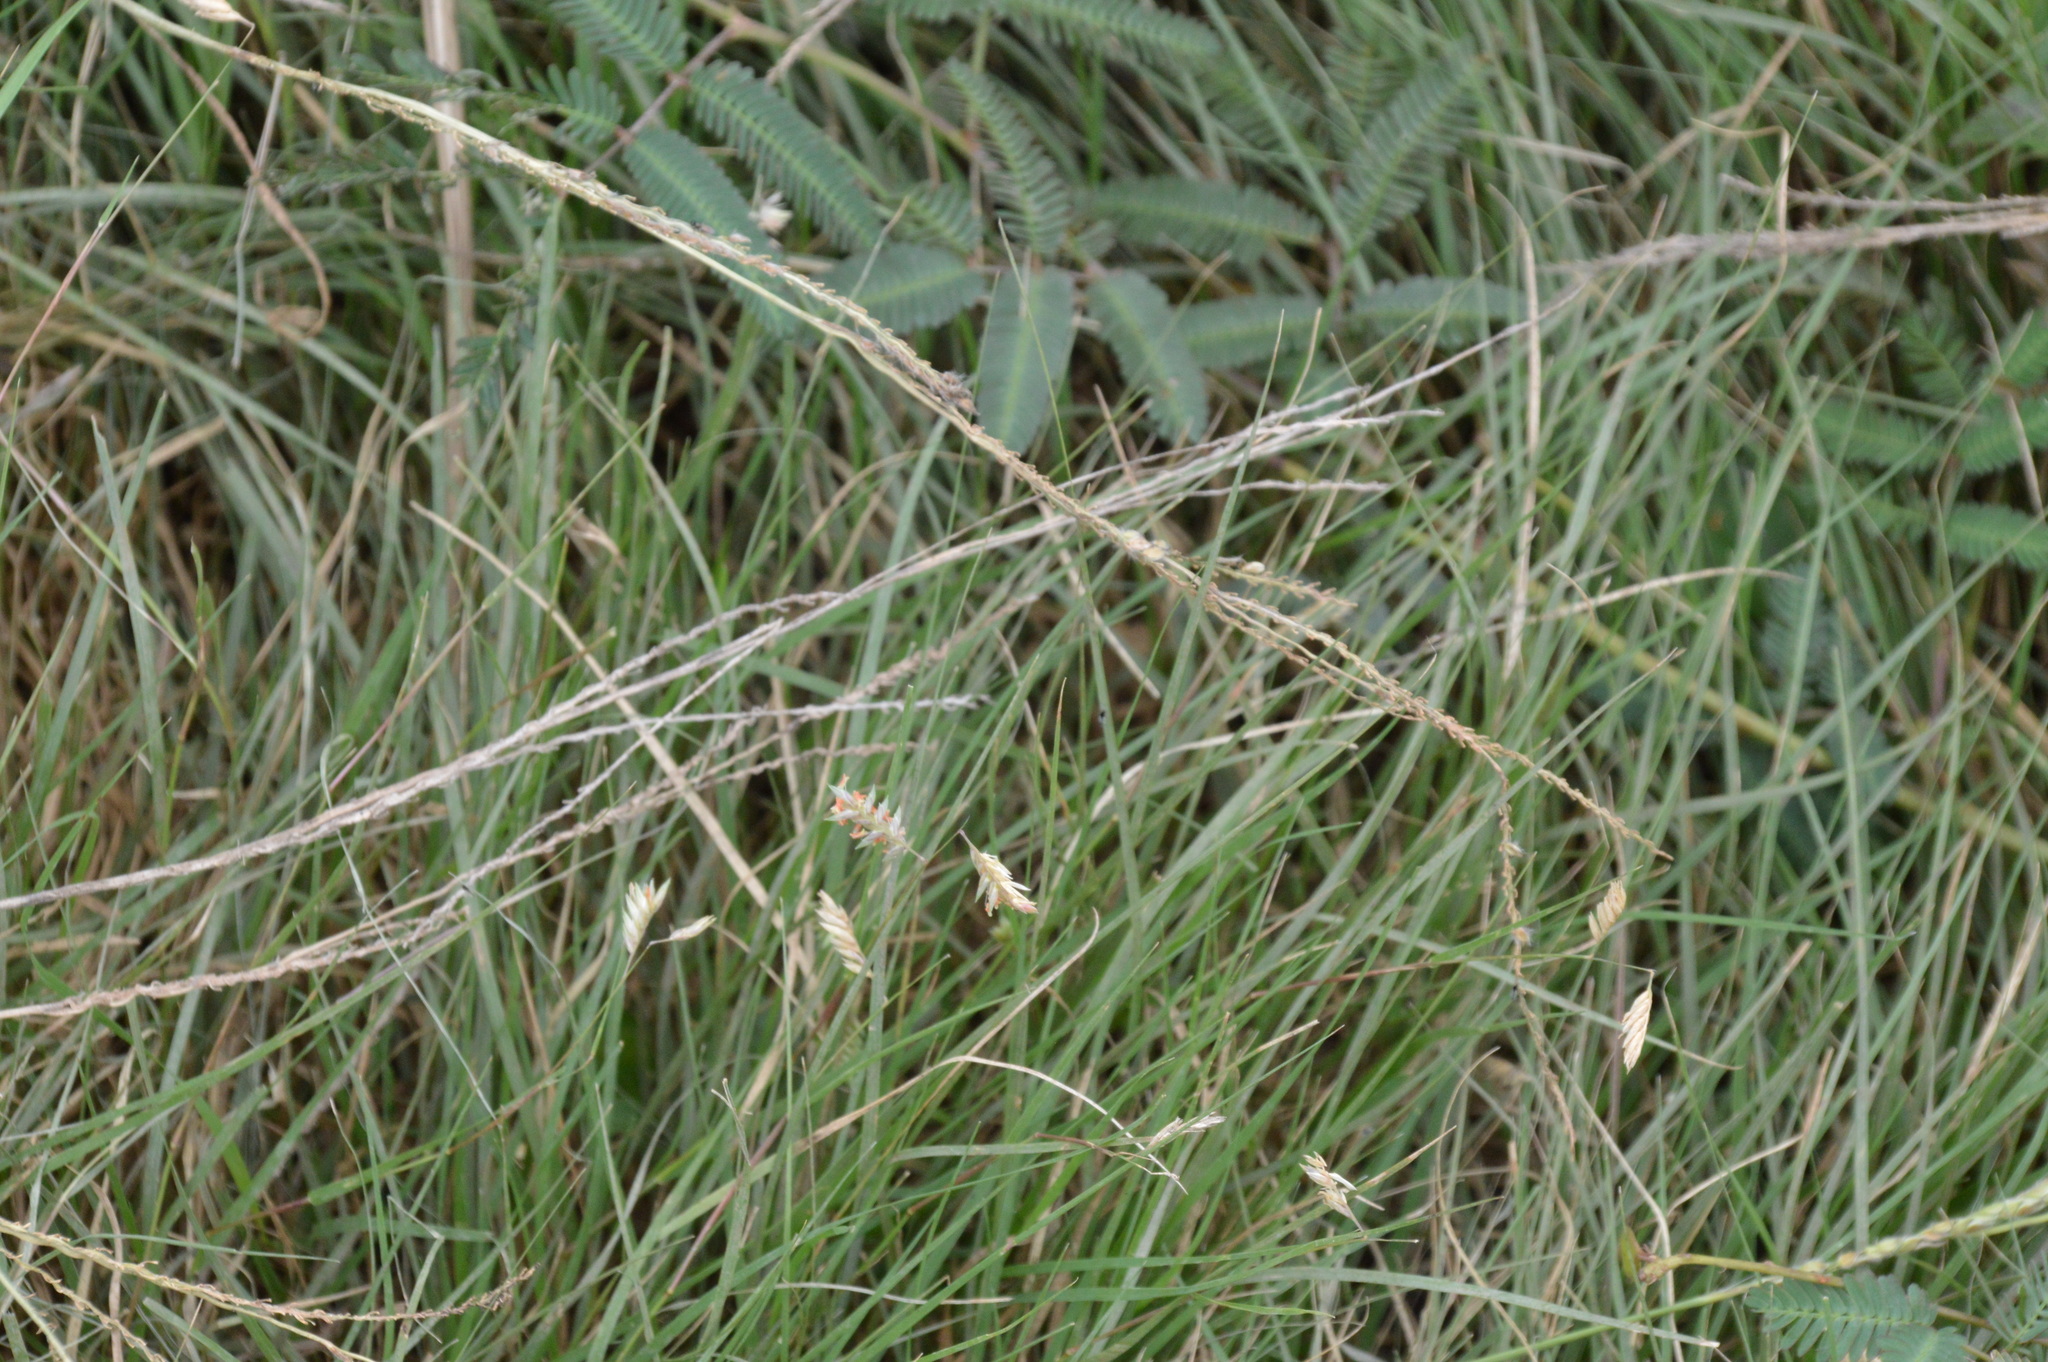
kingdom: Plantae
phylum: Tracheophyta
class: Liliopsida
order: Poales
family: Poaceae
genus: Bouteloua
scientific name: Bouteloua dactyloides
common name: Buffalo grass
